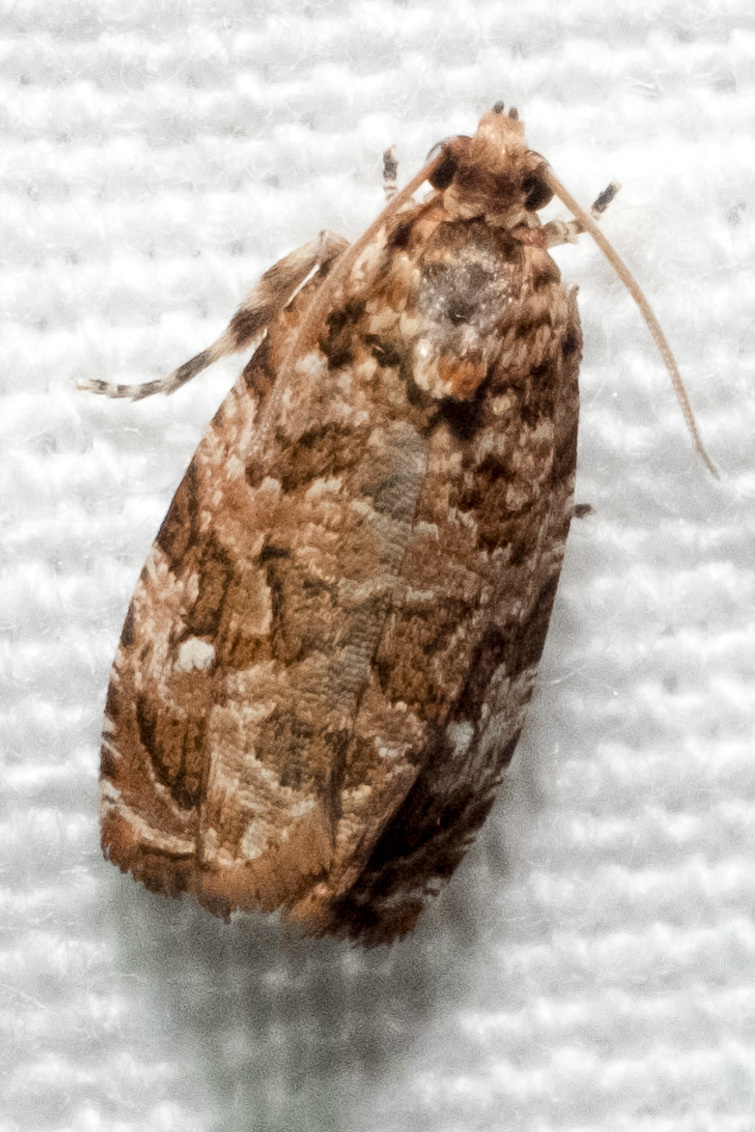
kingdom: Animalia
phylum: Arthropoda
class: Insecta
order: Lepidoptera
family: Tortricidae
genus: Phaecasiophora
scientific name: Phaecasiophora niveiguttana
